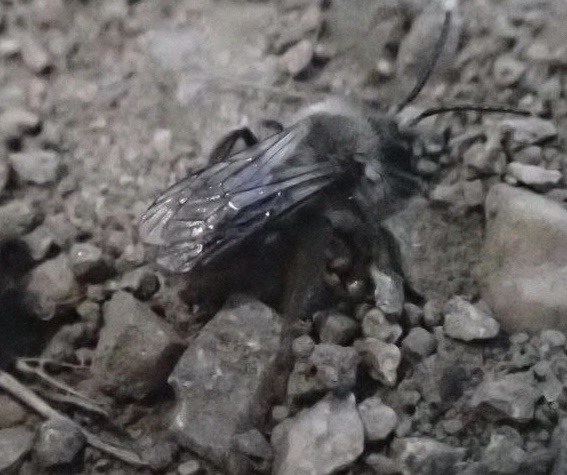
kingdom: Animalia
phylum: Arthropoda
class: Insecta
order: Hymenoptera
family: Andrenidae
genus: Andrena
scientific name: Andrena vaga
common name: Grey-backed mining bee
